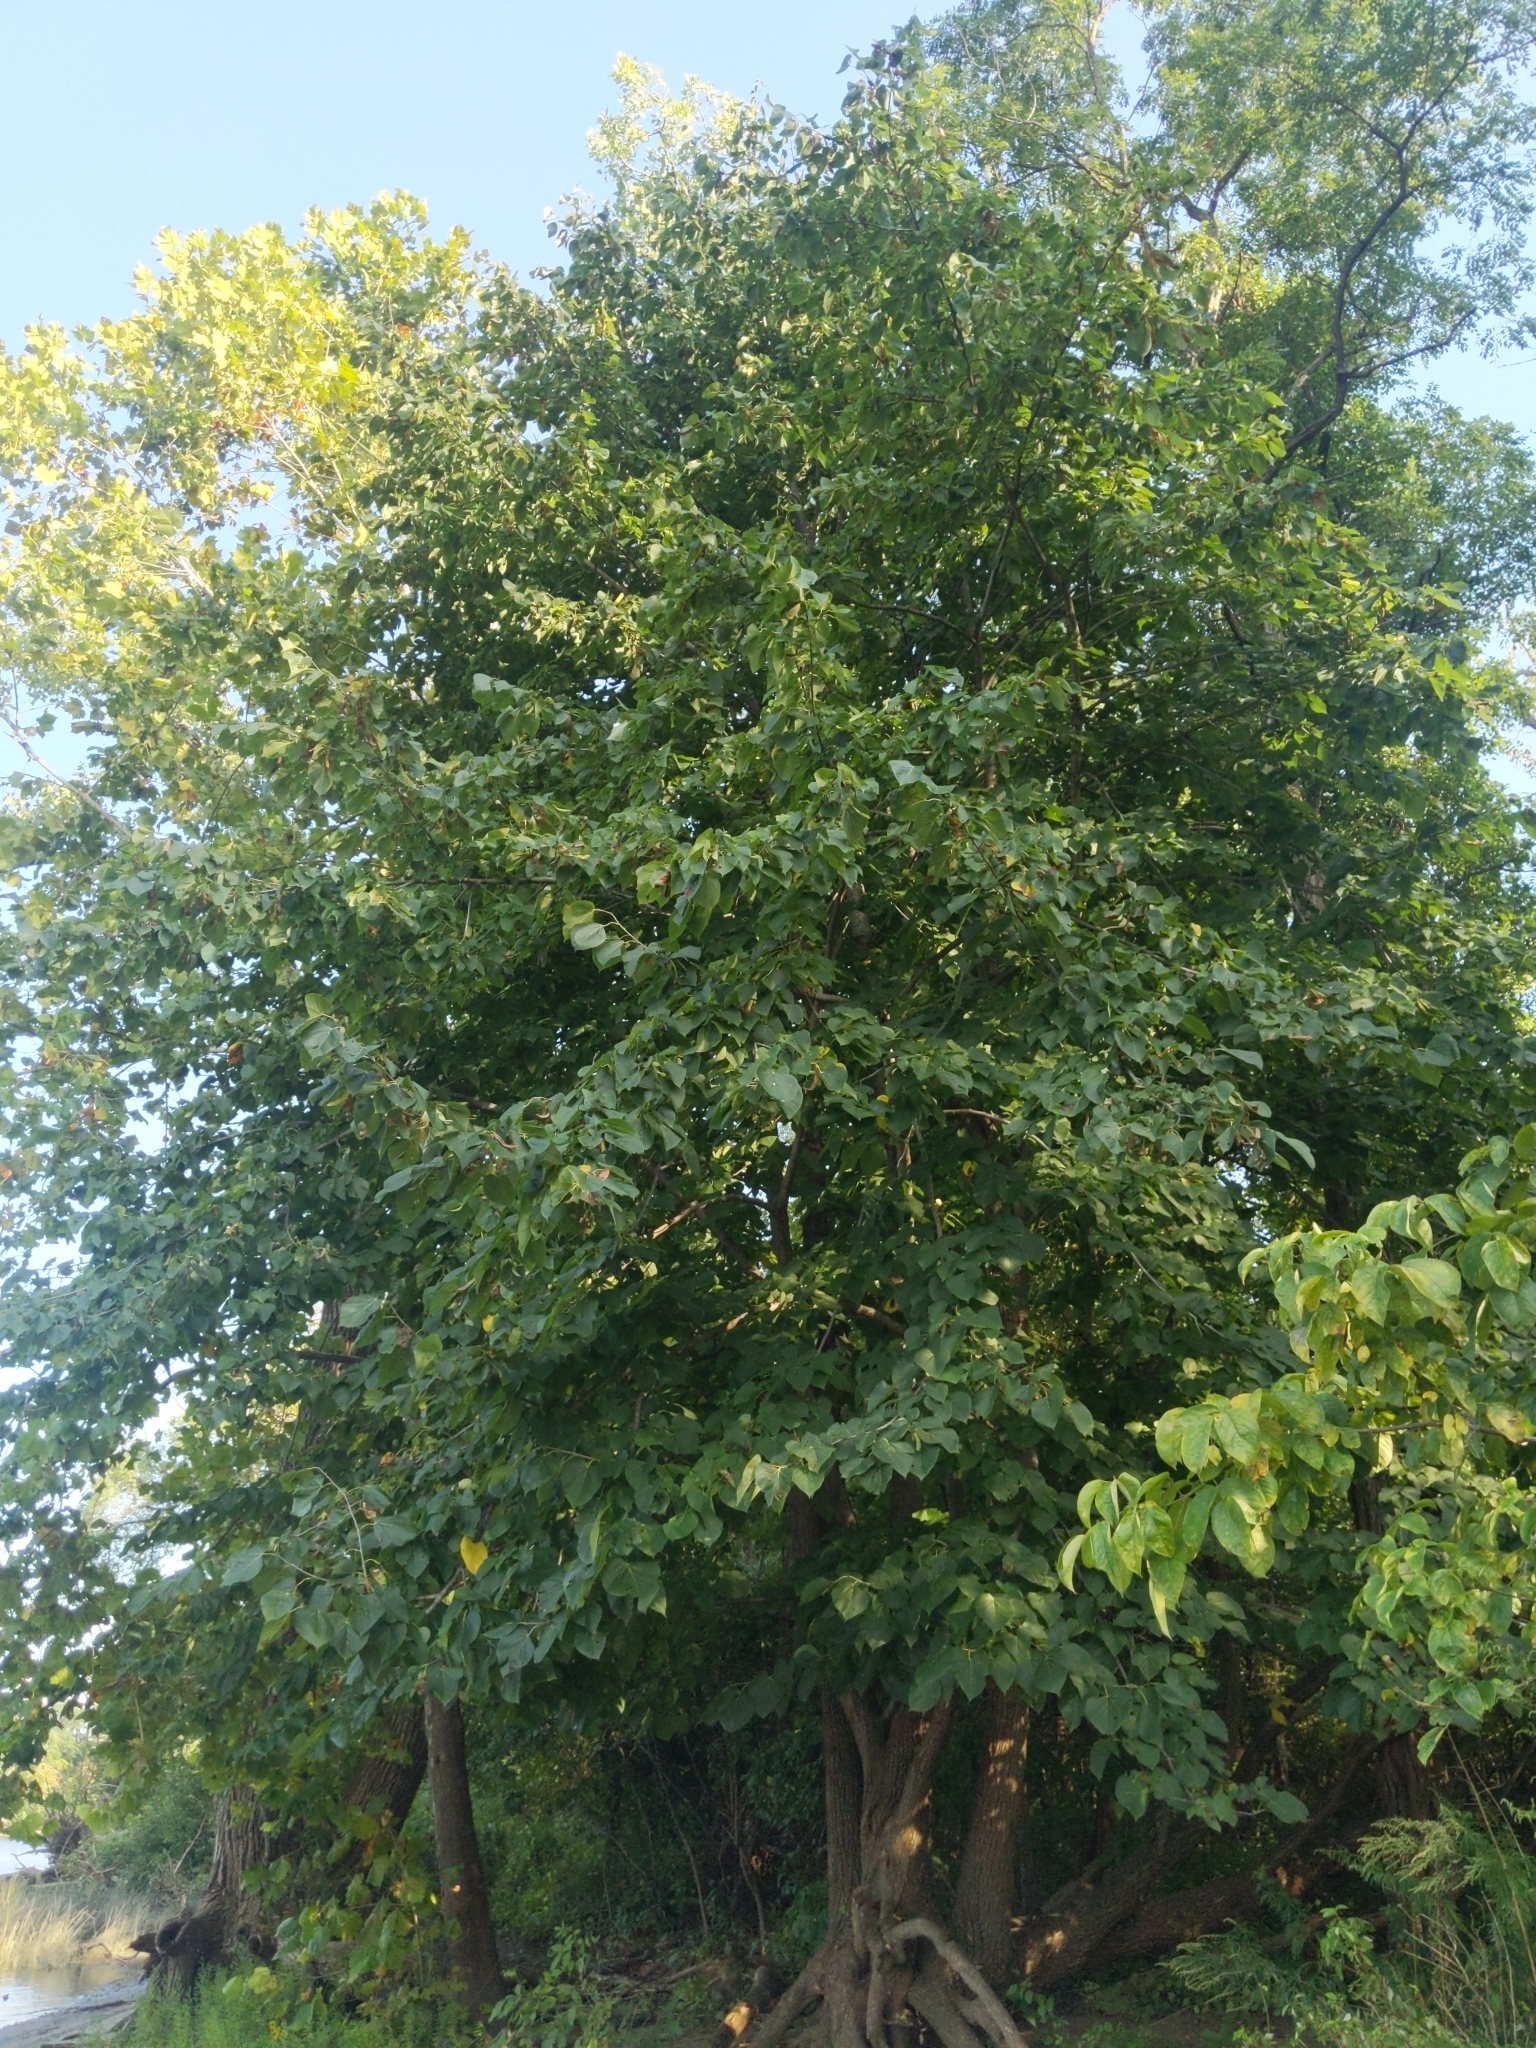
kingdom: Plantae
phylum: Tracheophyta
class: Magnoliopsida
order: Malvales
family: Malvaceae
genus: Tilia
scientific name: Tilia americana
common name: Basswood
